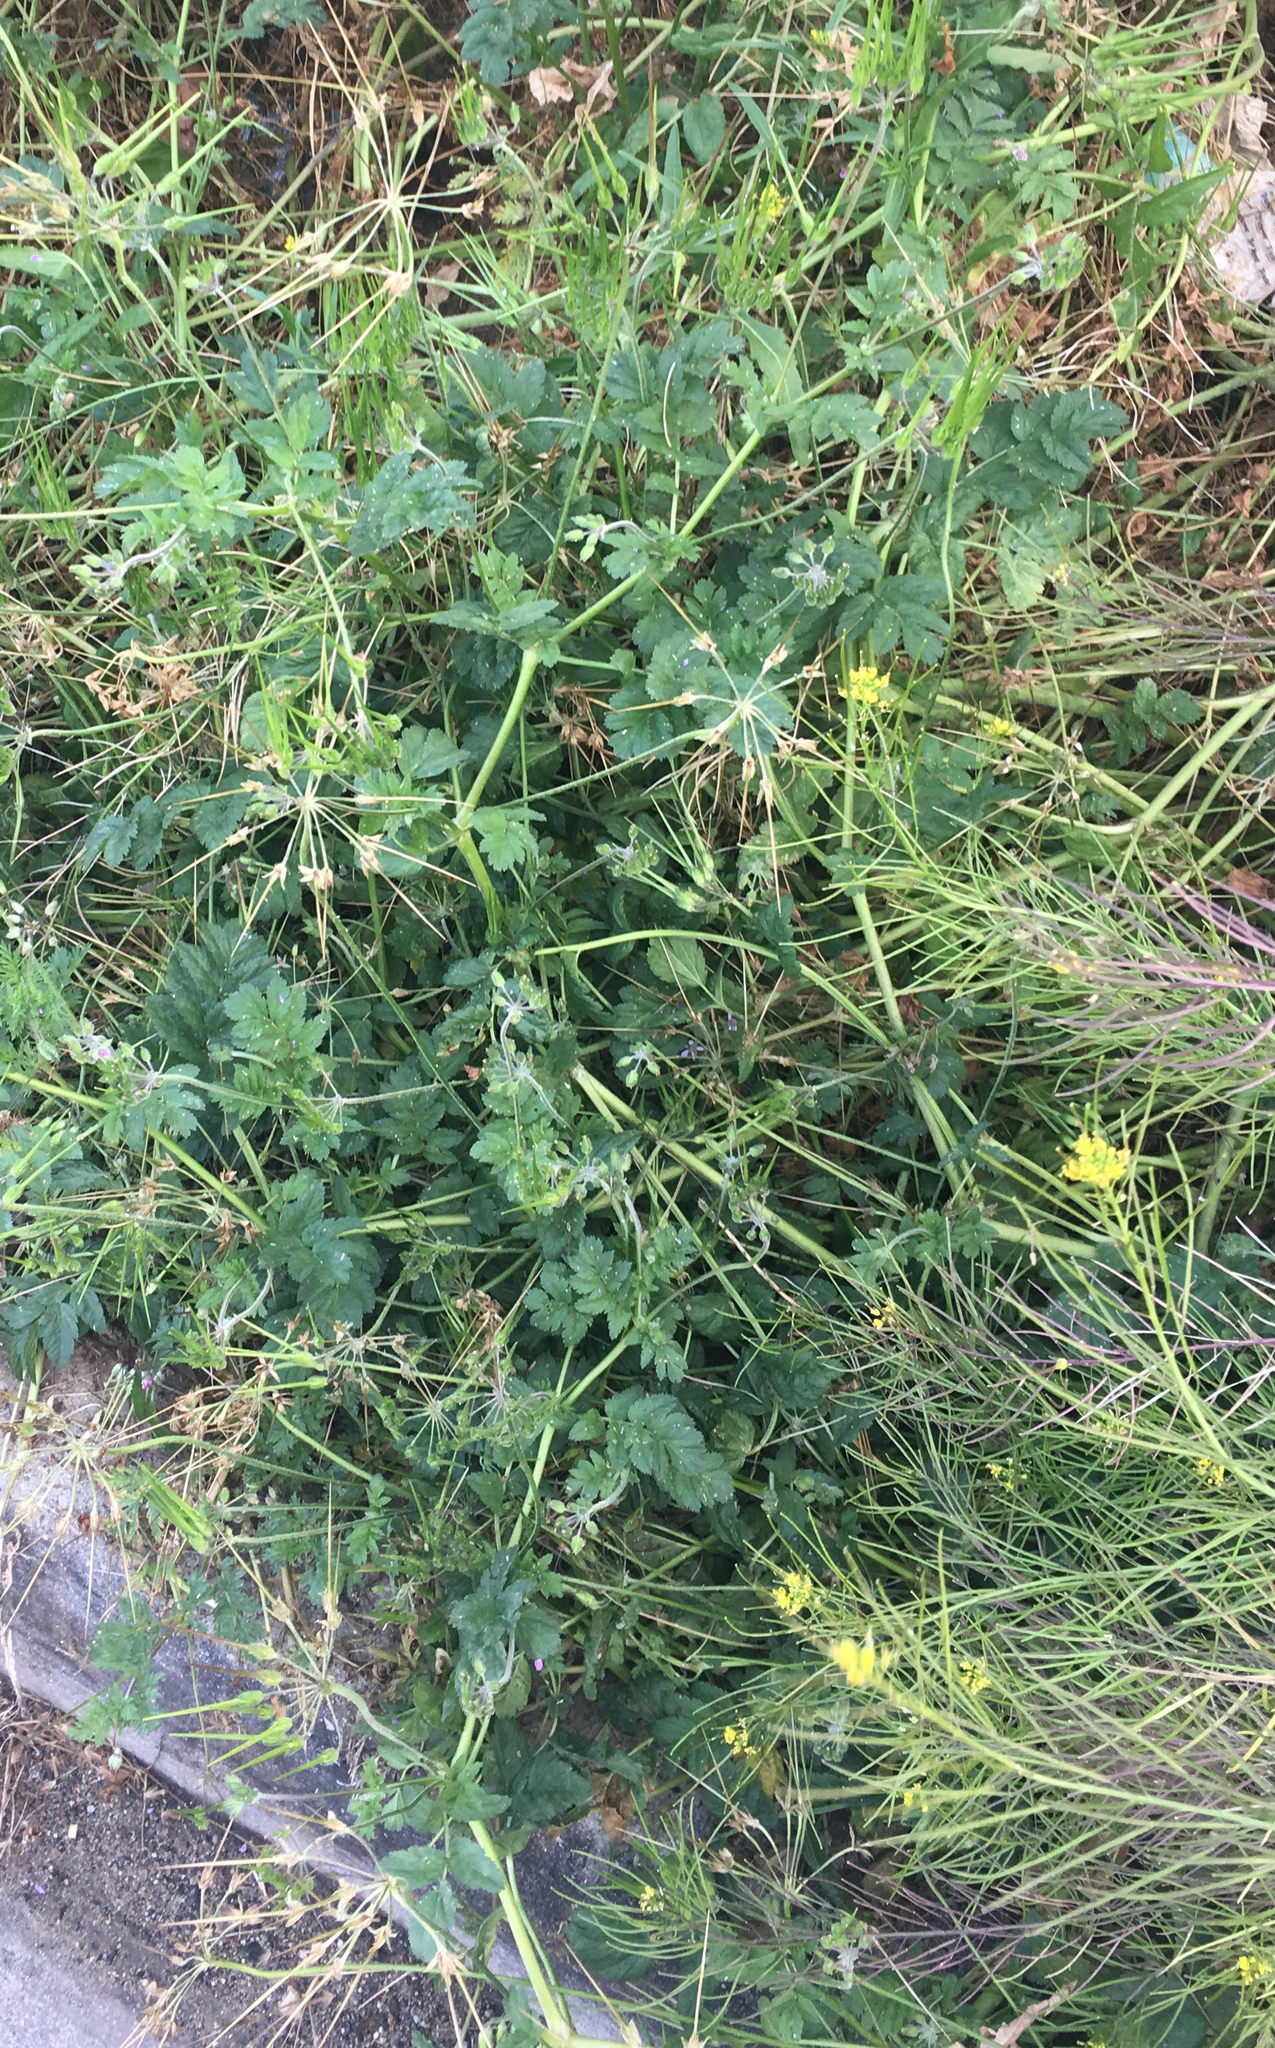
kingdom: Plantae
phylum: Tracheophyta
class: Magnoliopsida
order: Geraniales
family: Geraniaceae
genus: Erodium
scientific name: Erodium moschatum
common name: Musk stork's-bill
